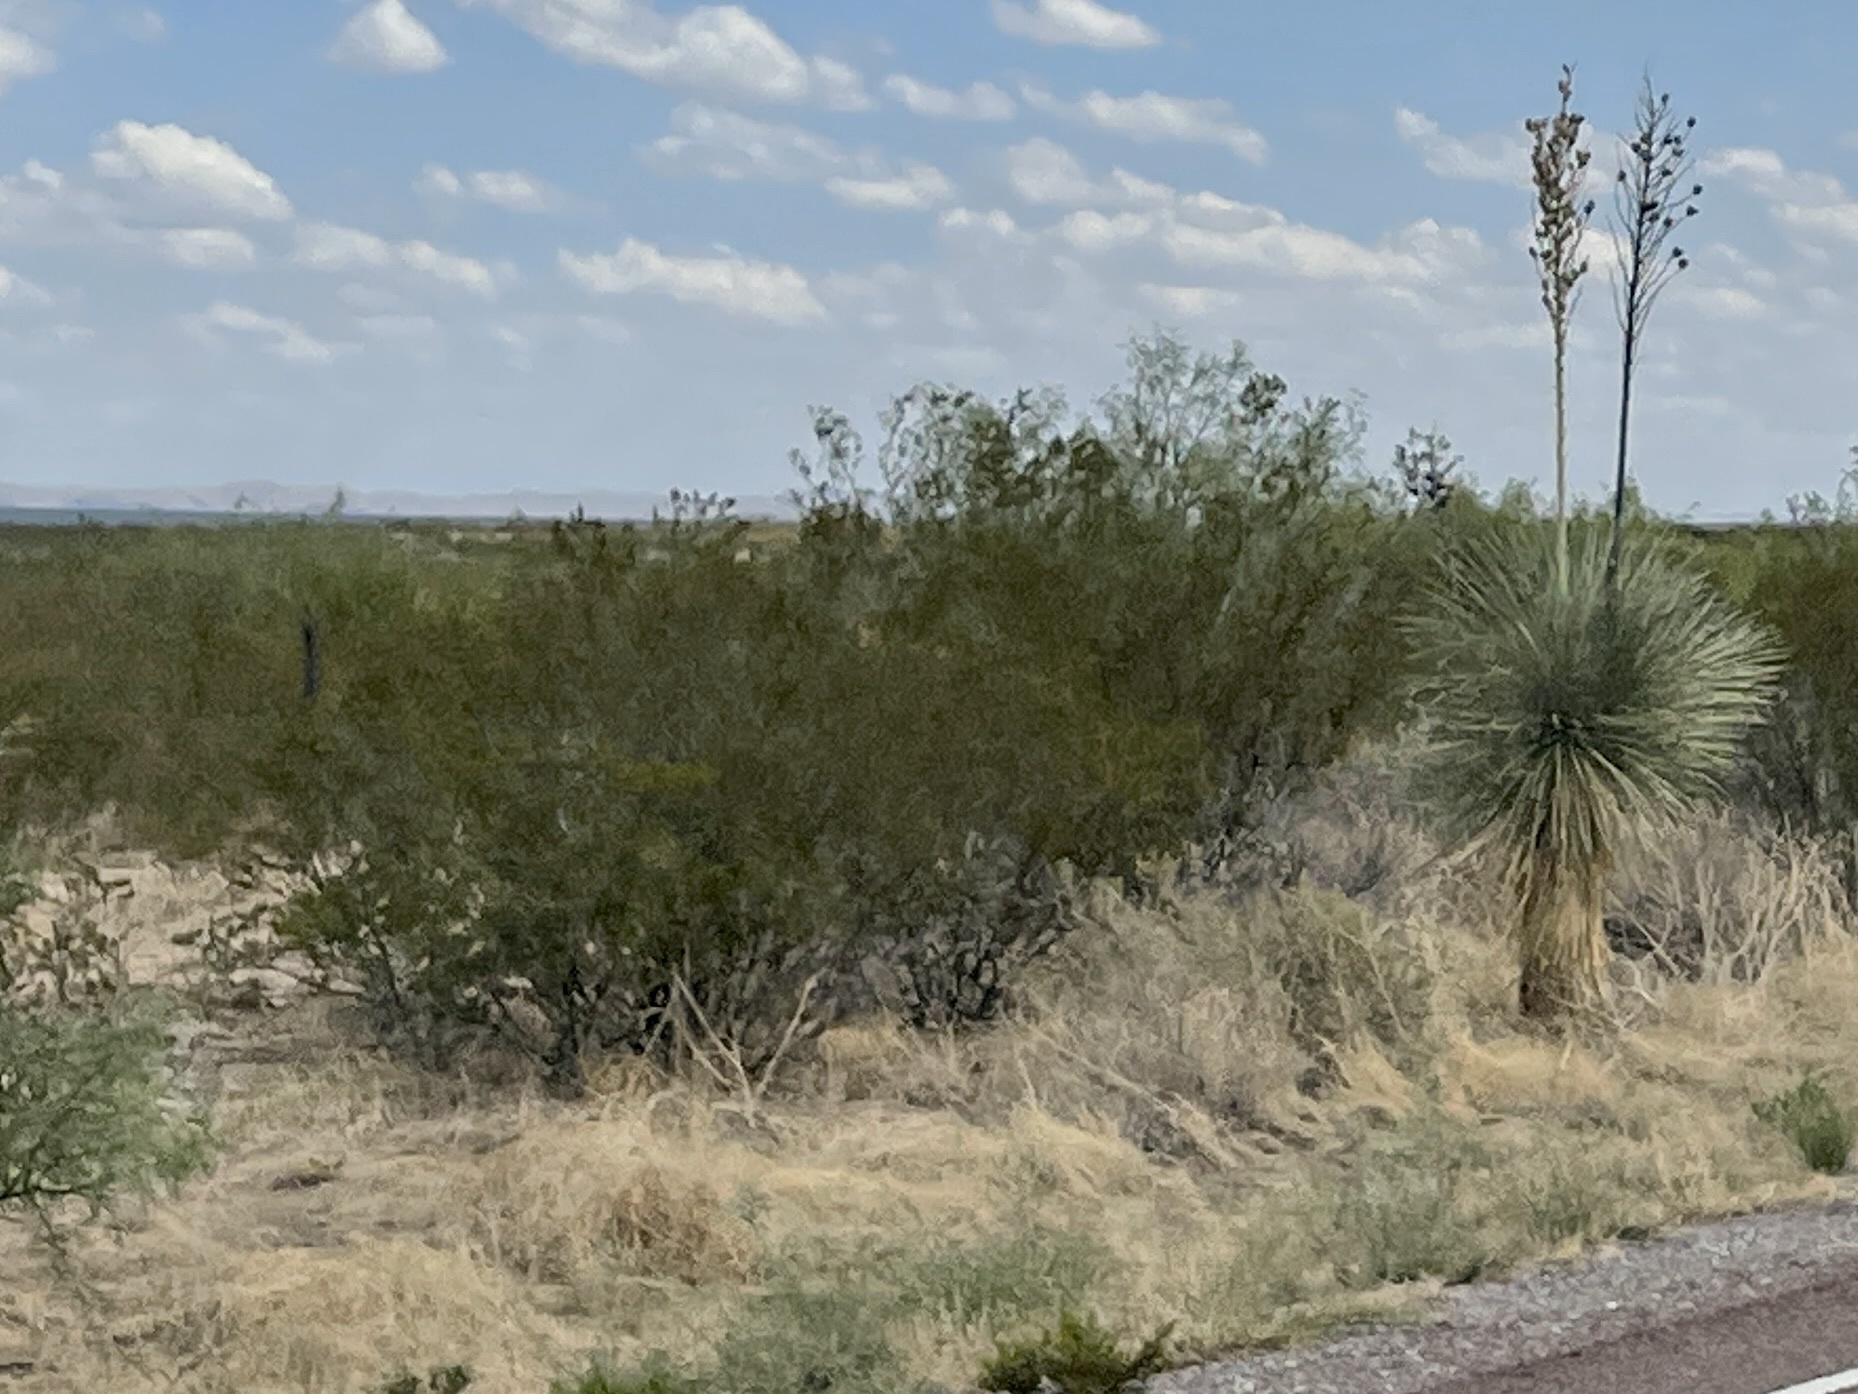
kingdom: Plantae
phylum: Tracheophyta
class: Magnoliopsida
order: Zygophyllales
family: Zygophyllaceae
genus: Larrea
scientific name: Larrea tridentata
